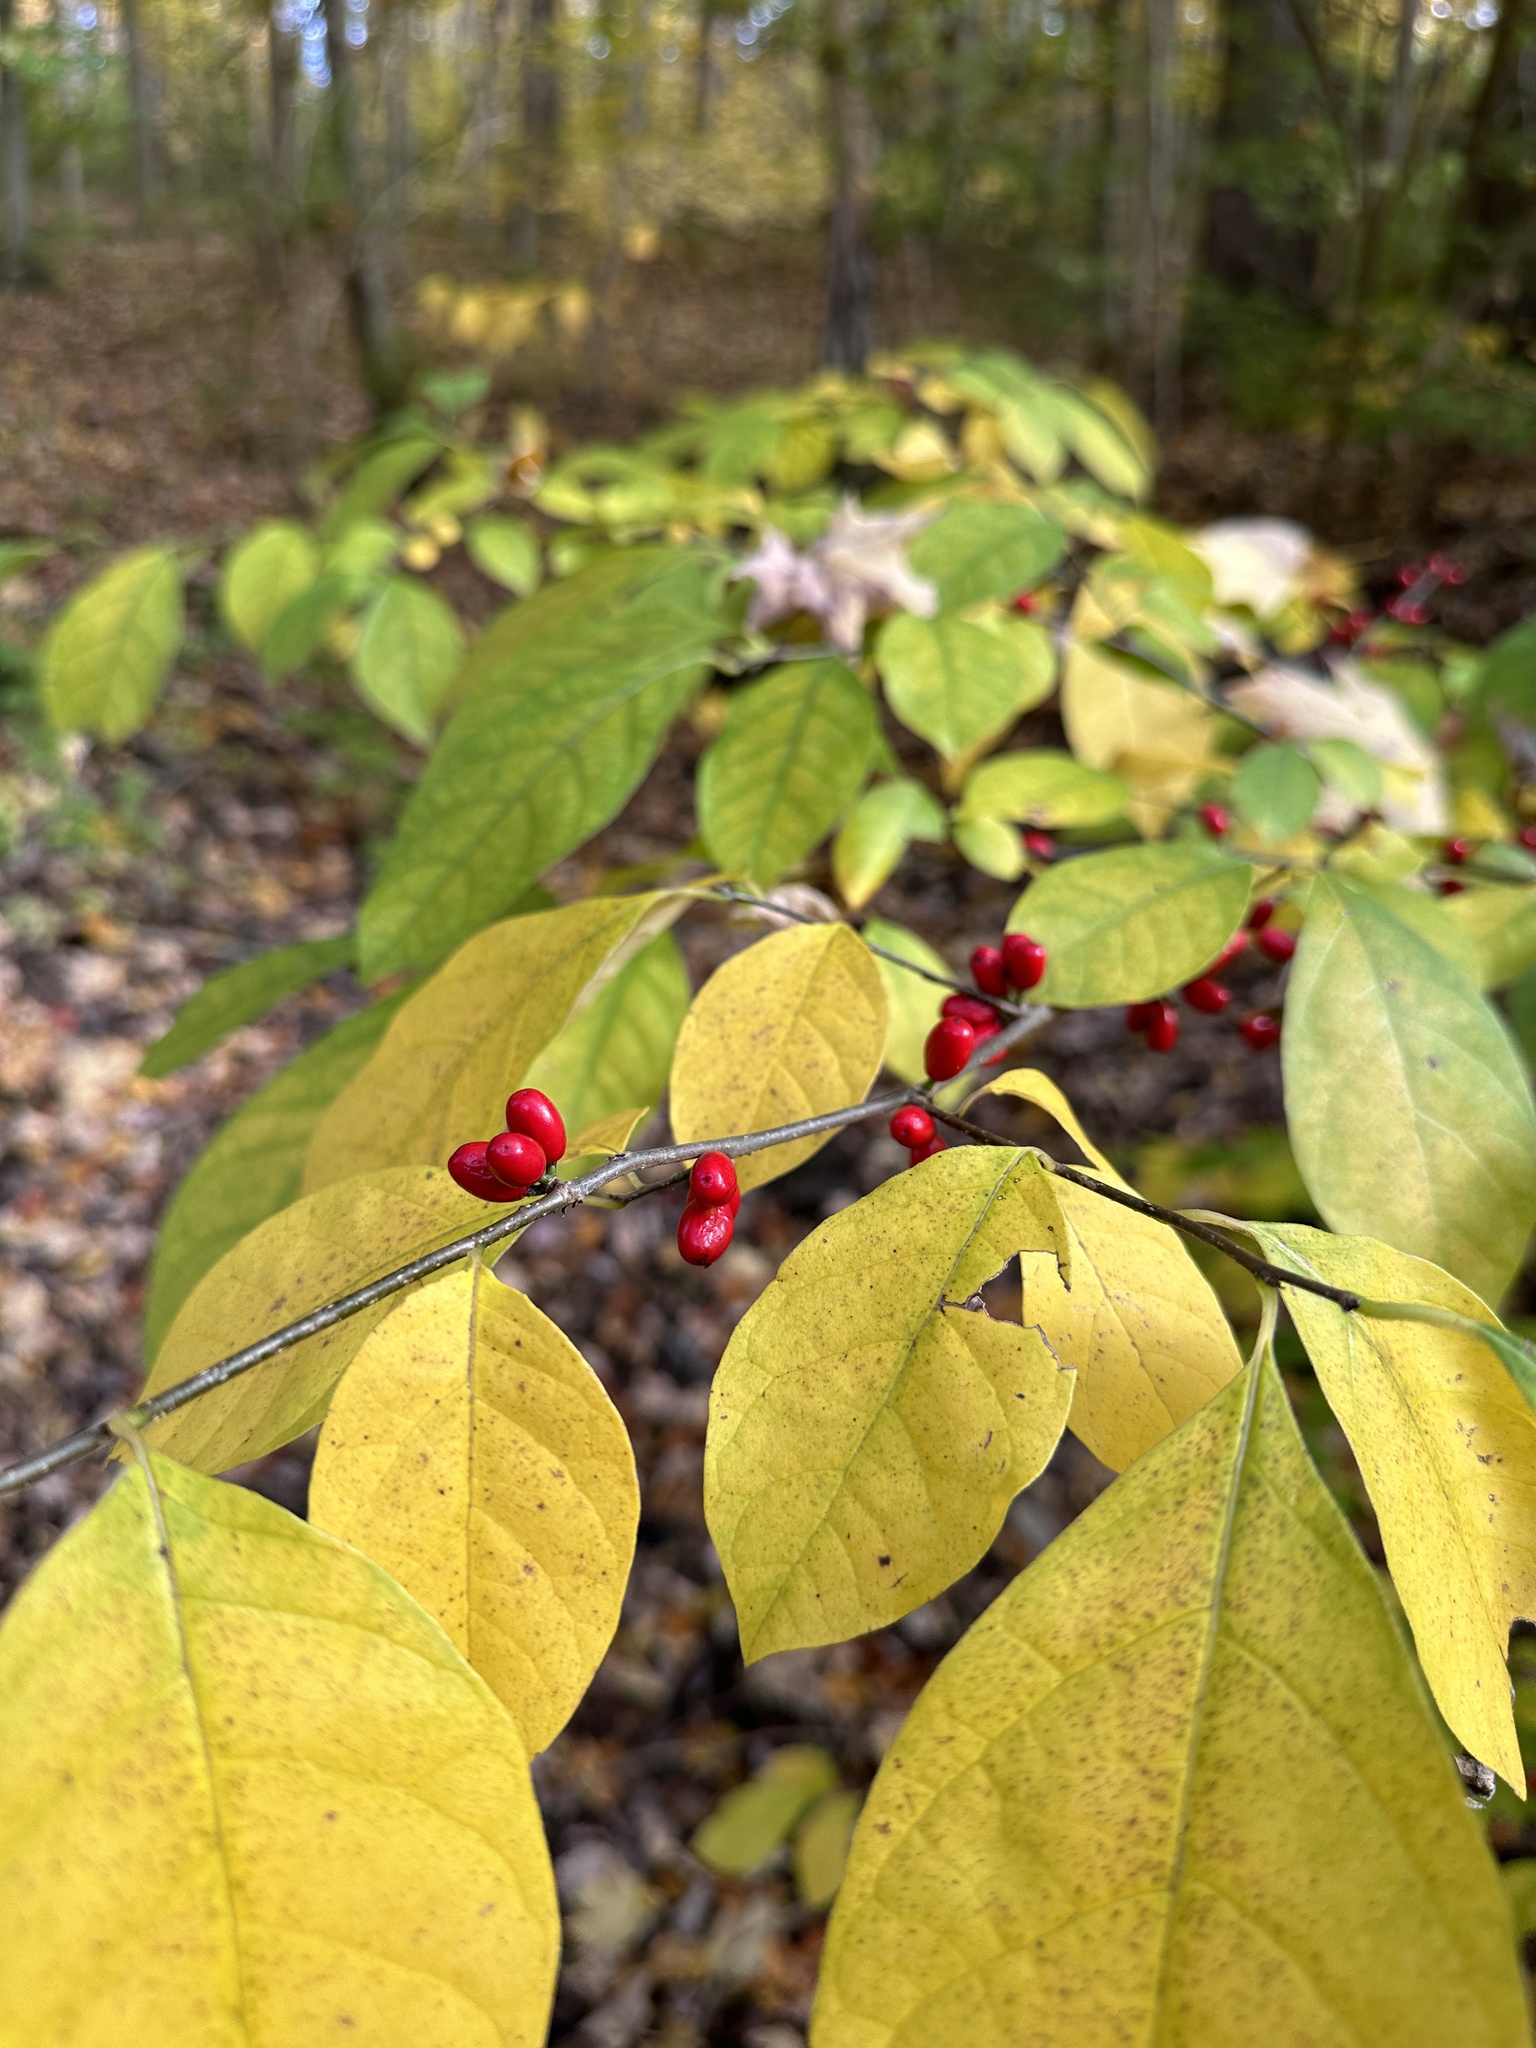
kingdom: Plantae
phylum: Tracheophyta
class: Magnoliopsida
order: Laurales
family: Lauraceae
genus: Lindera
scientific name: Lindera benzoin
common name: Spicebush
